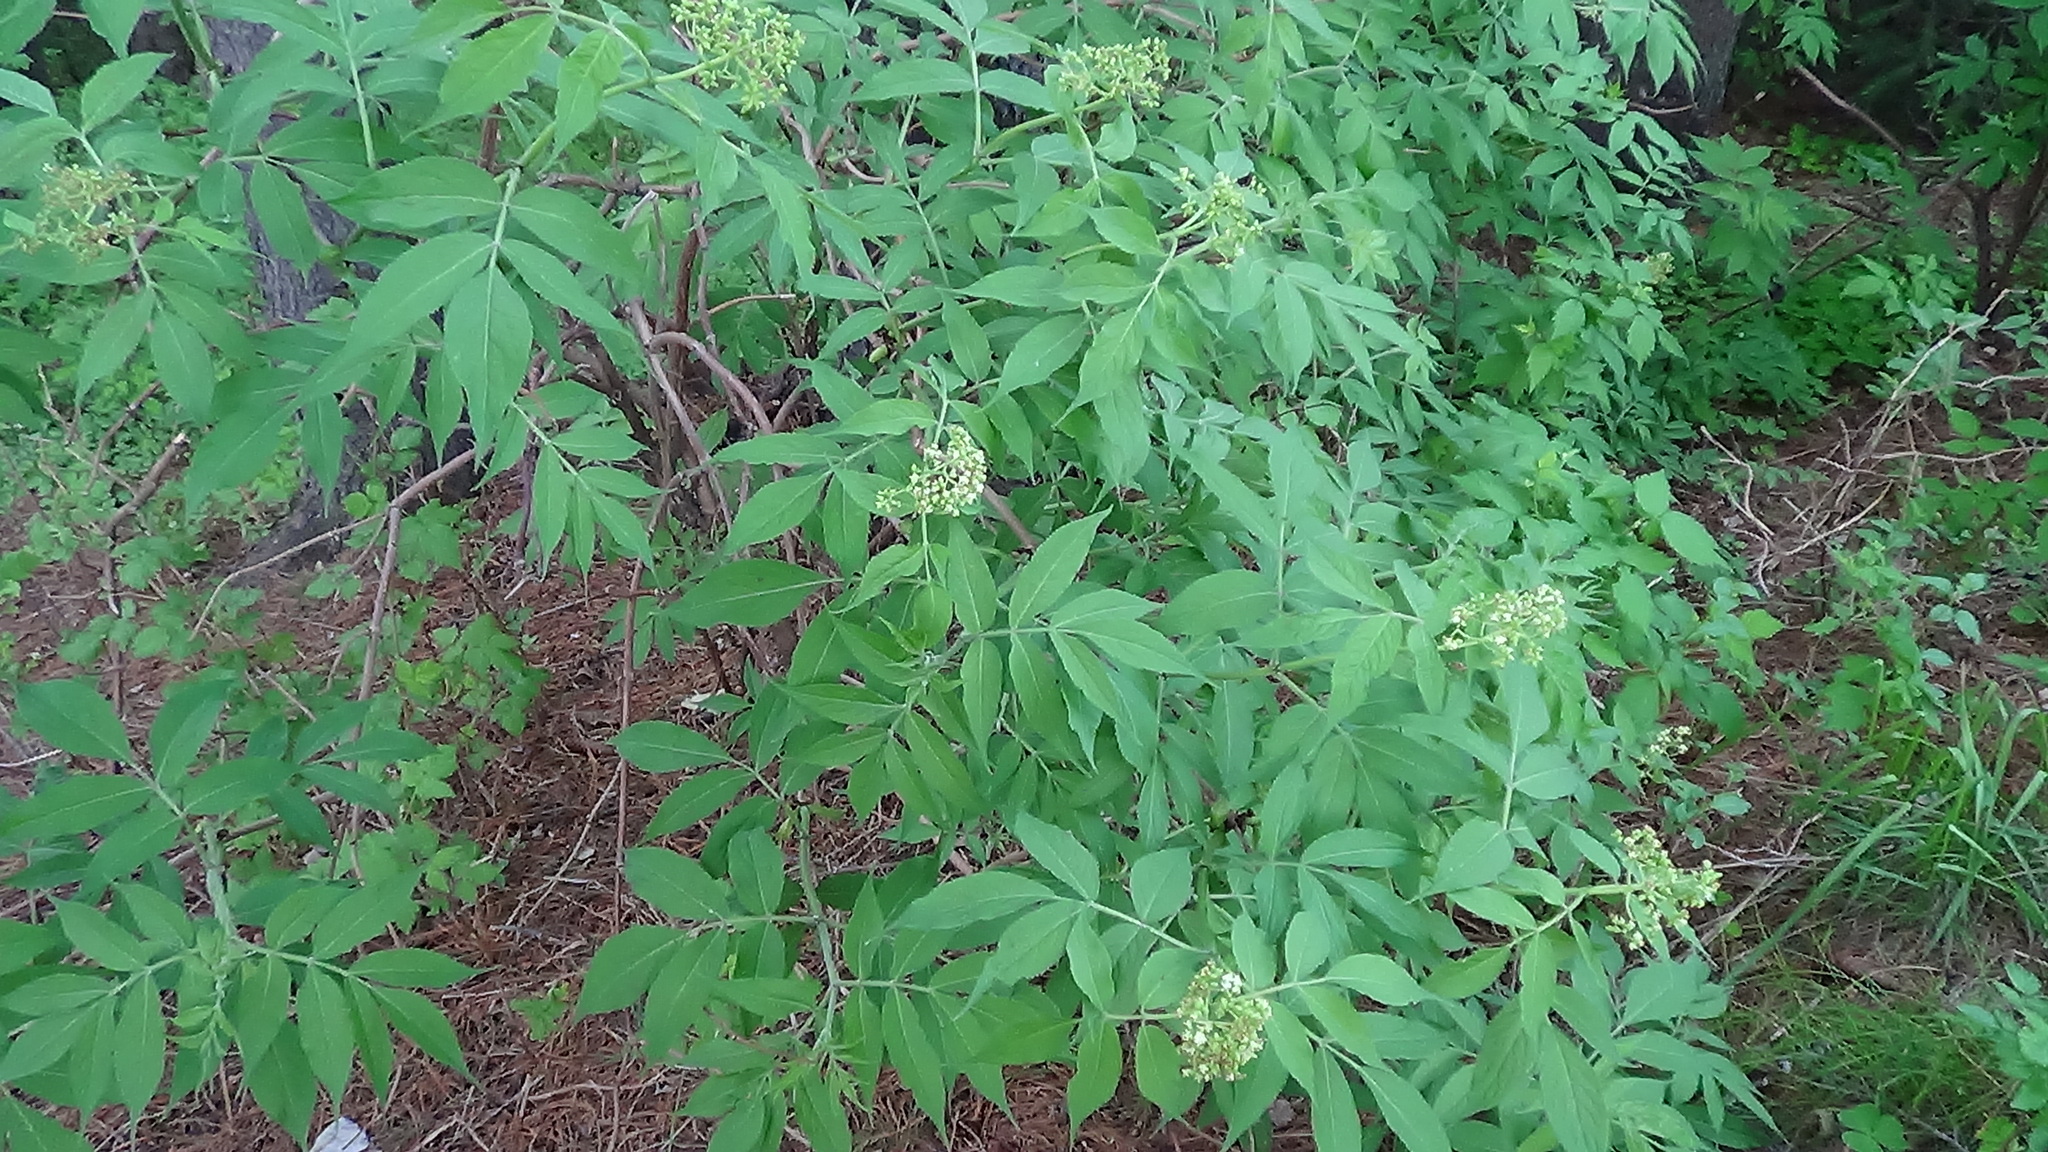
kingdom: Plantae
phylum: Tracheophyta
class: Magnoliopsida
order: Dipsacales
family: Viburnaceae
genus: Sambucus
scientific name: Sambucus sibirica
